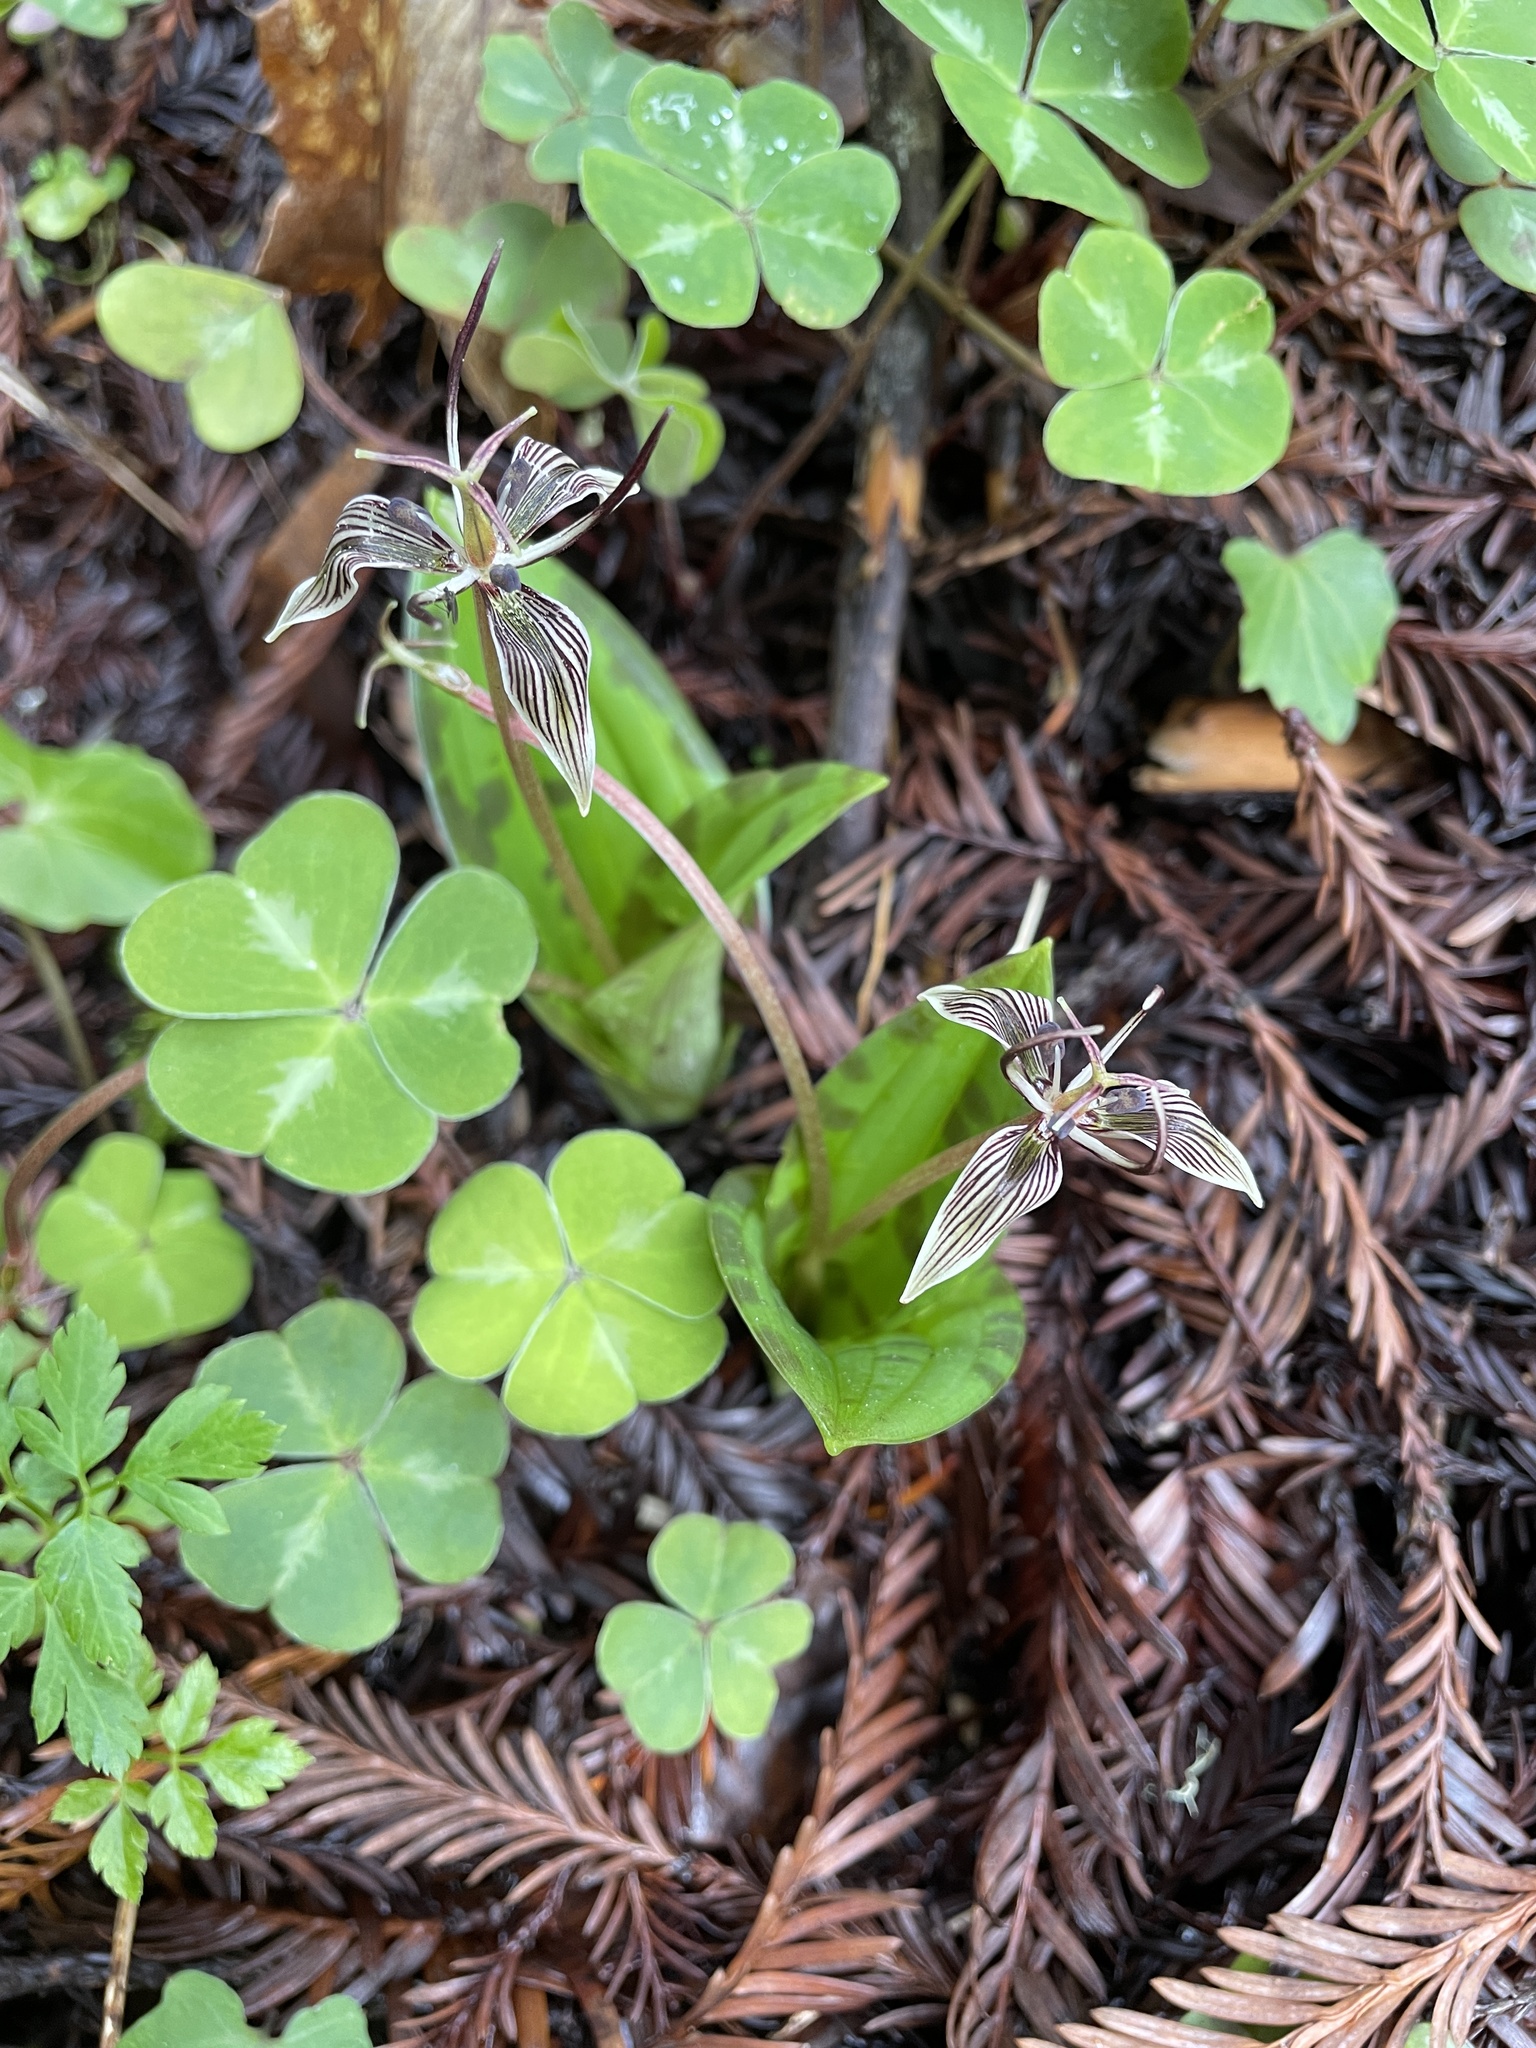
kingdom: Plantae
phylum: Tracheophyta
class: Liliopsida
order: Liliales
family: Liliaceae
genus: Scoliopus
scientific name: Scoliopus bigelovii
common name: Foetid adder's-tongue
